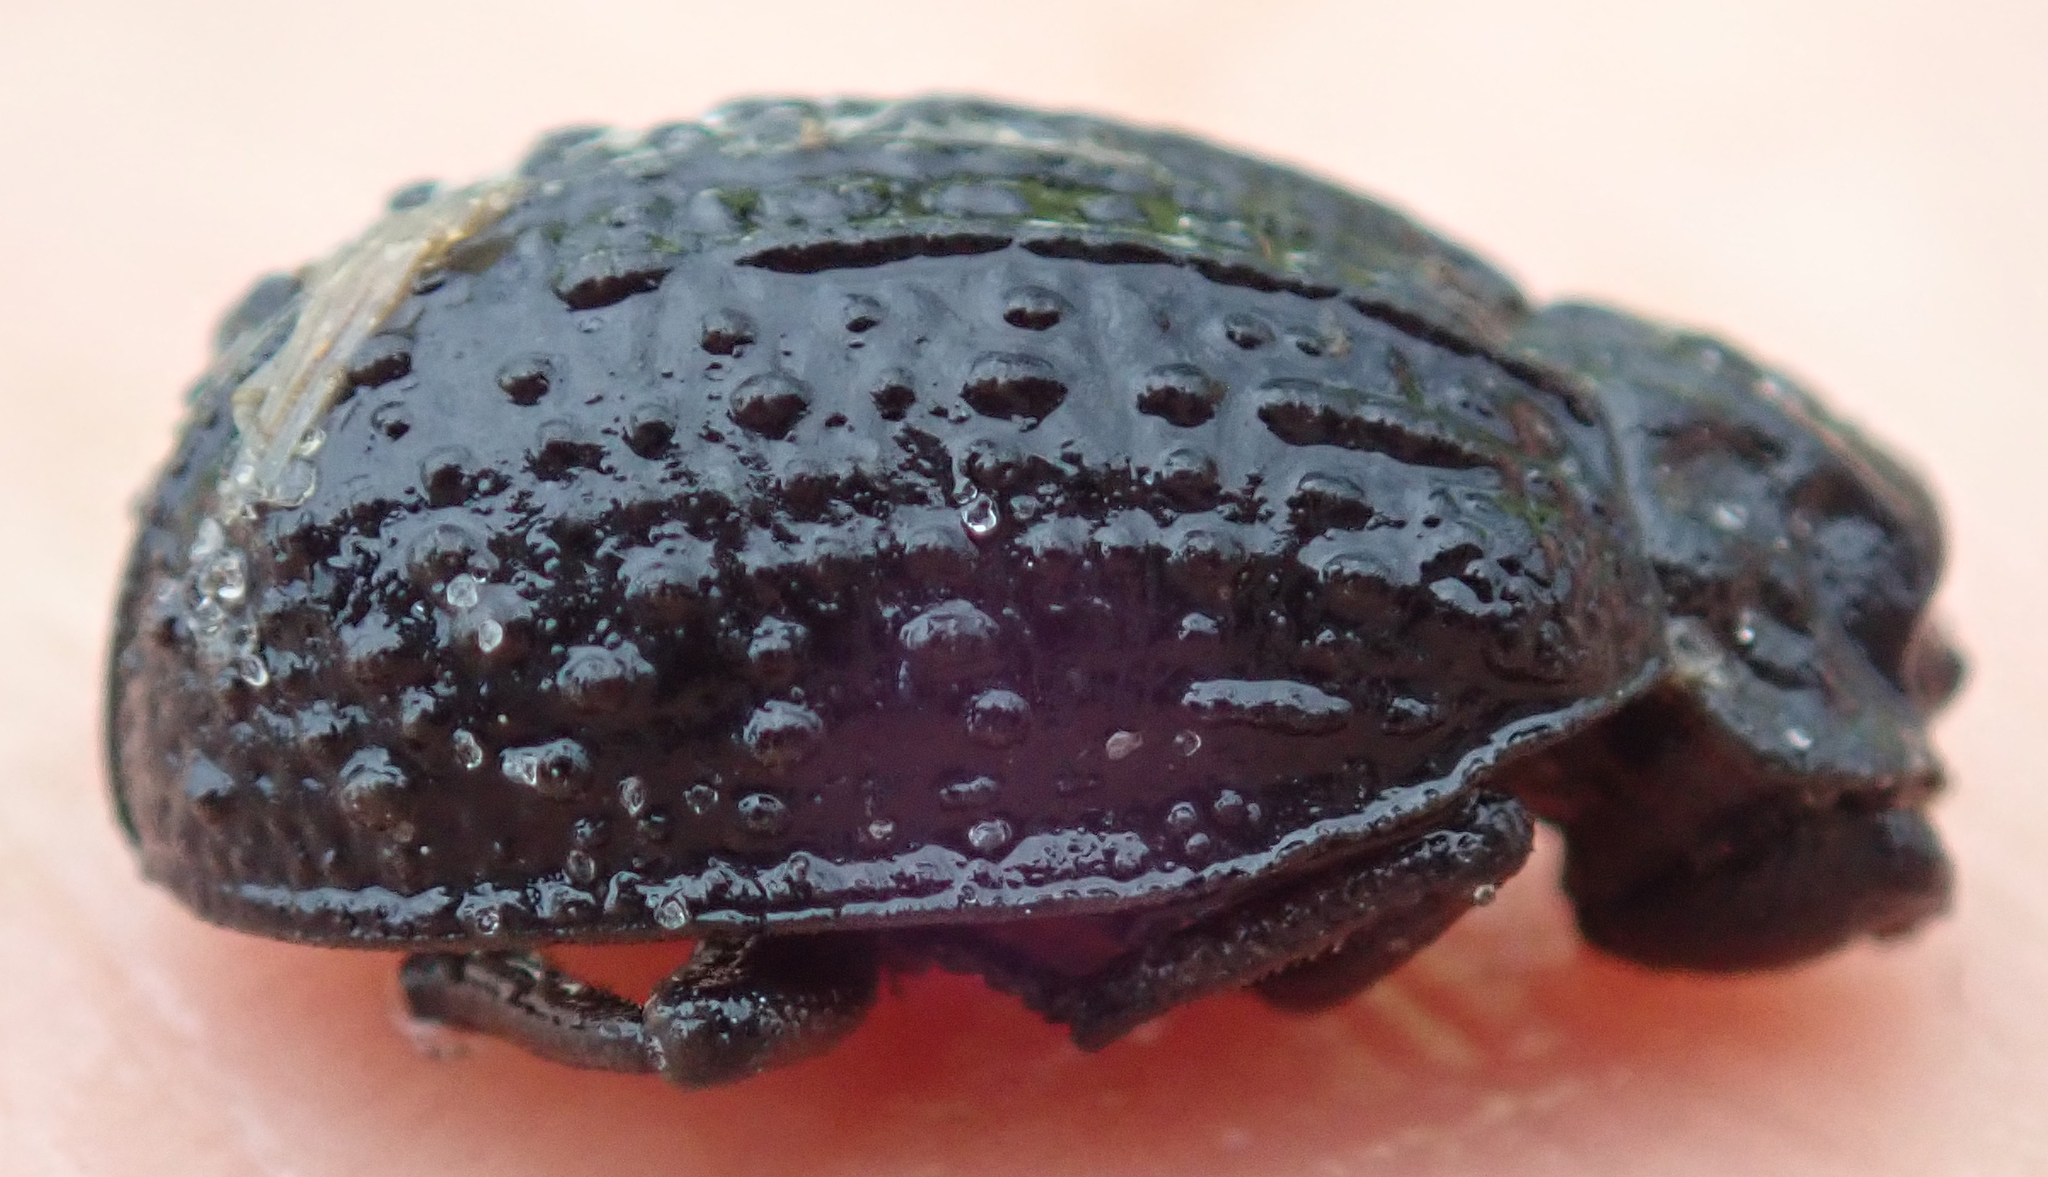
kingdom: Animalia
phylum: Arthropoda
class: Insecta
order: Coleoptera
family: Trogidae
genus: Omorgus
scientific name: Omorgus melancholicus
